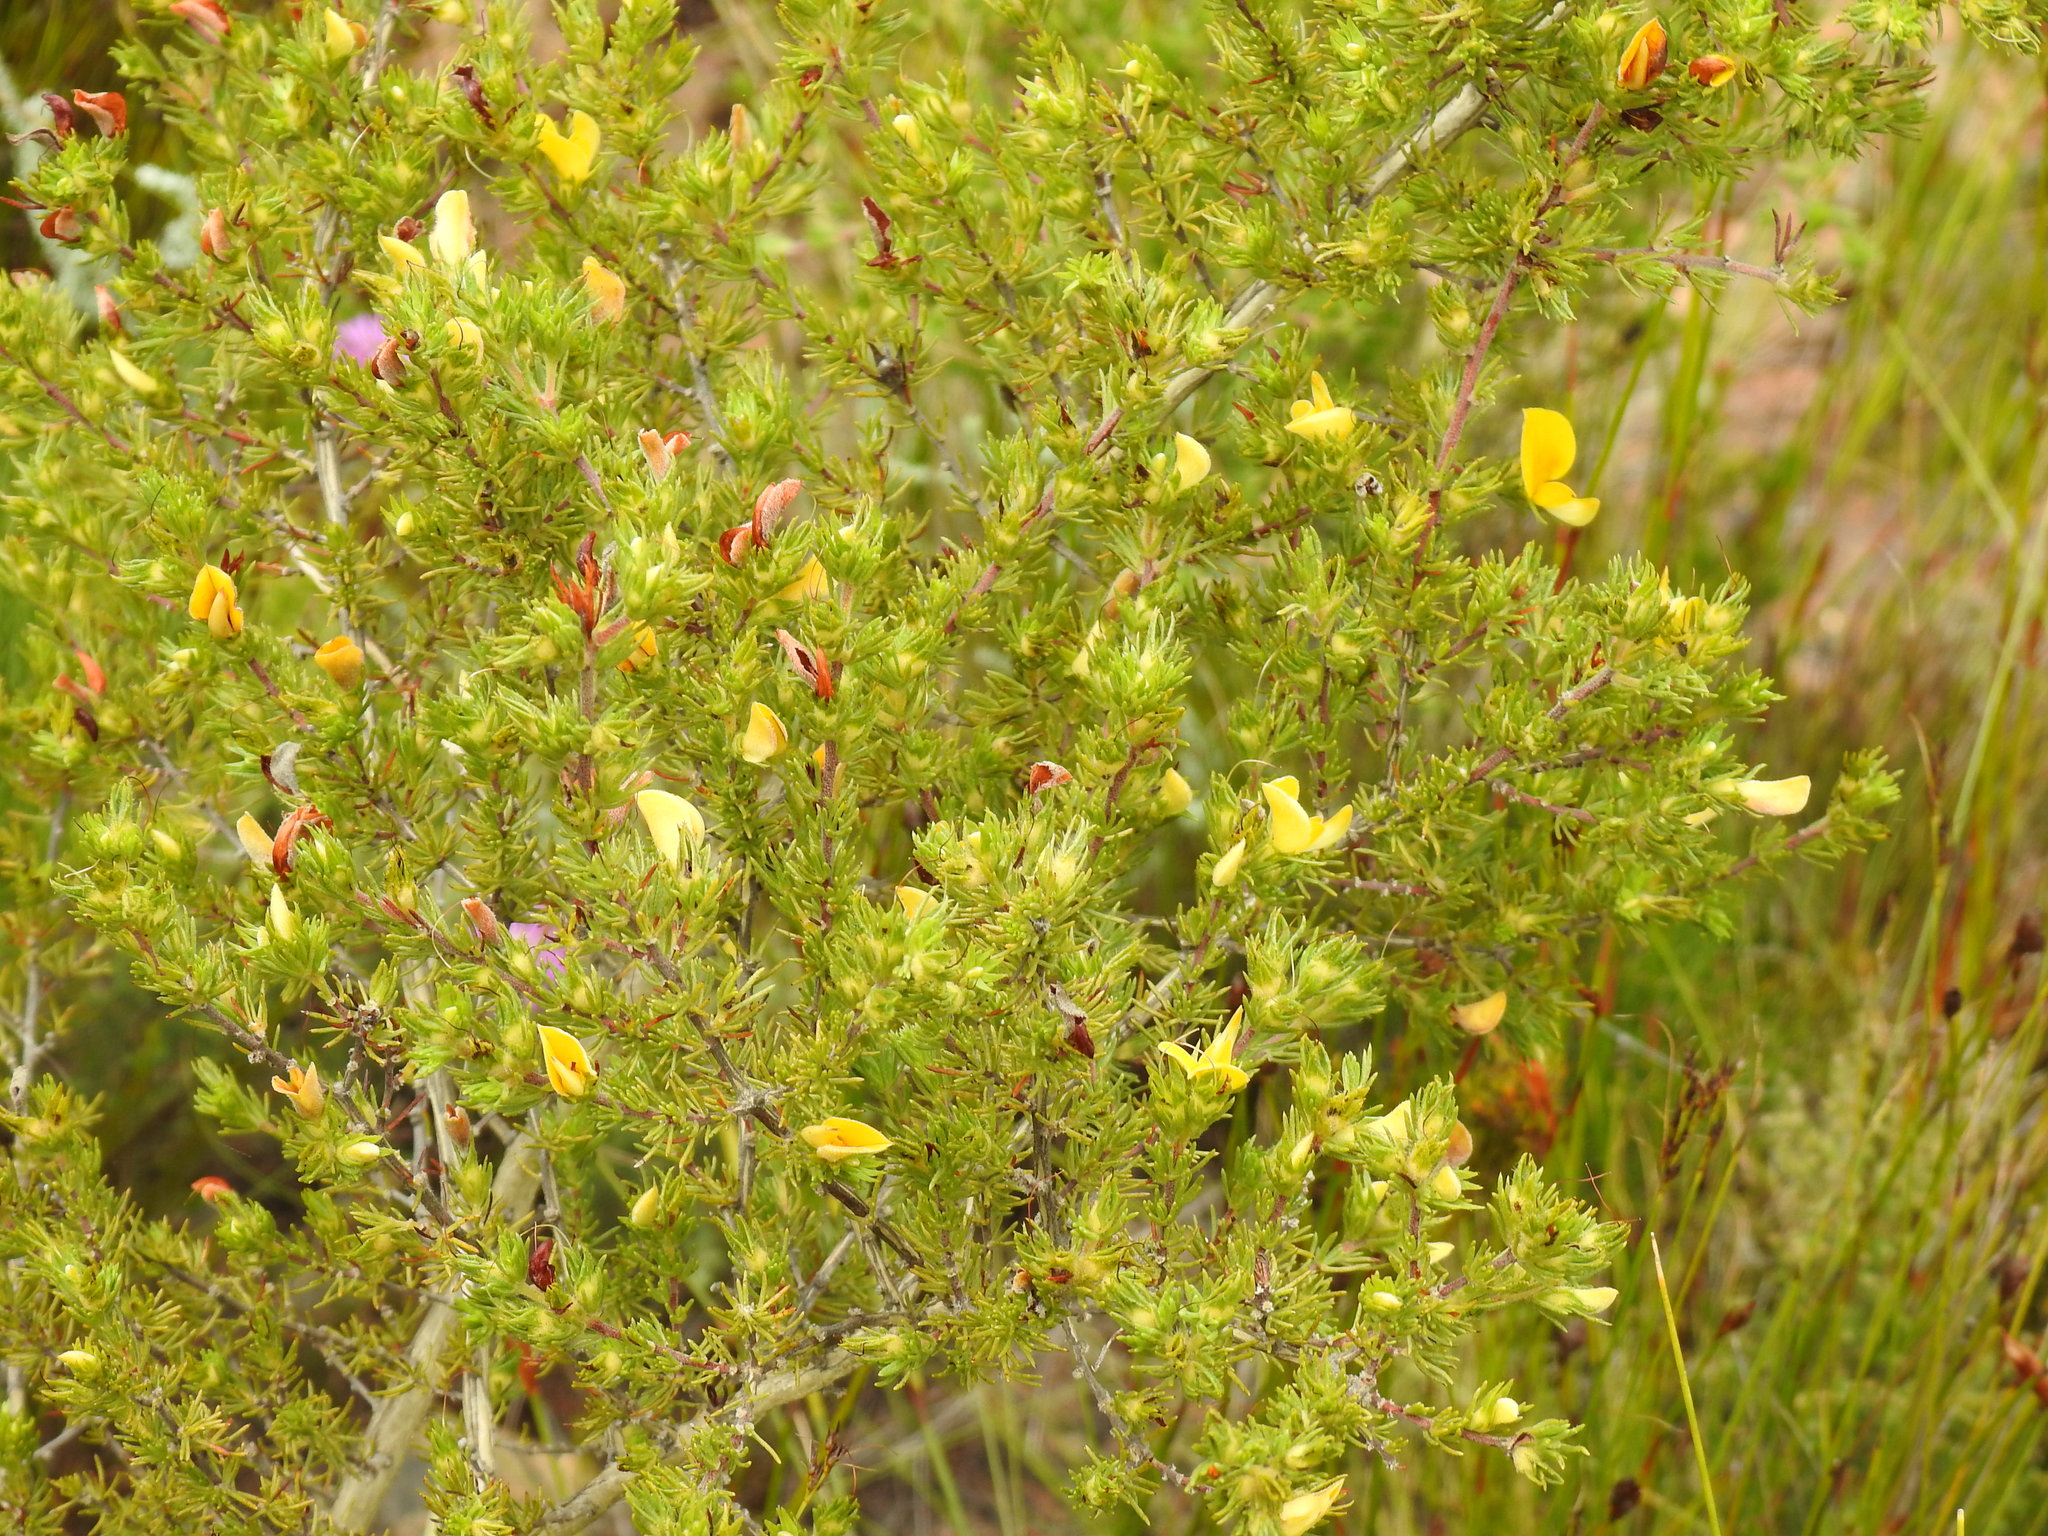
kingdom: Plantae
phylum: Tracheophyta
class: Magnoliopsida
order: Fabales
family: Fabaceae
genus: Aspalathus
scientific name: Aspalathus spicata
